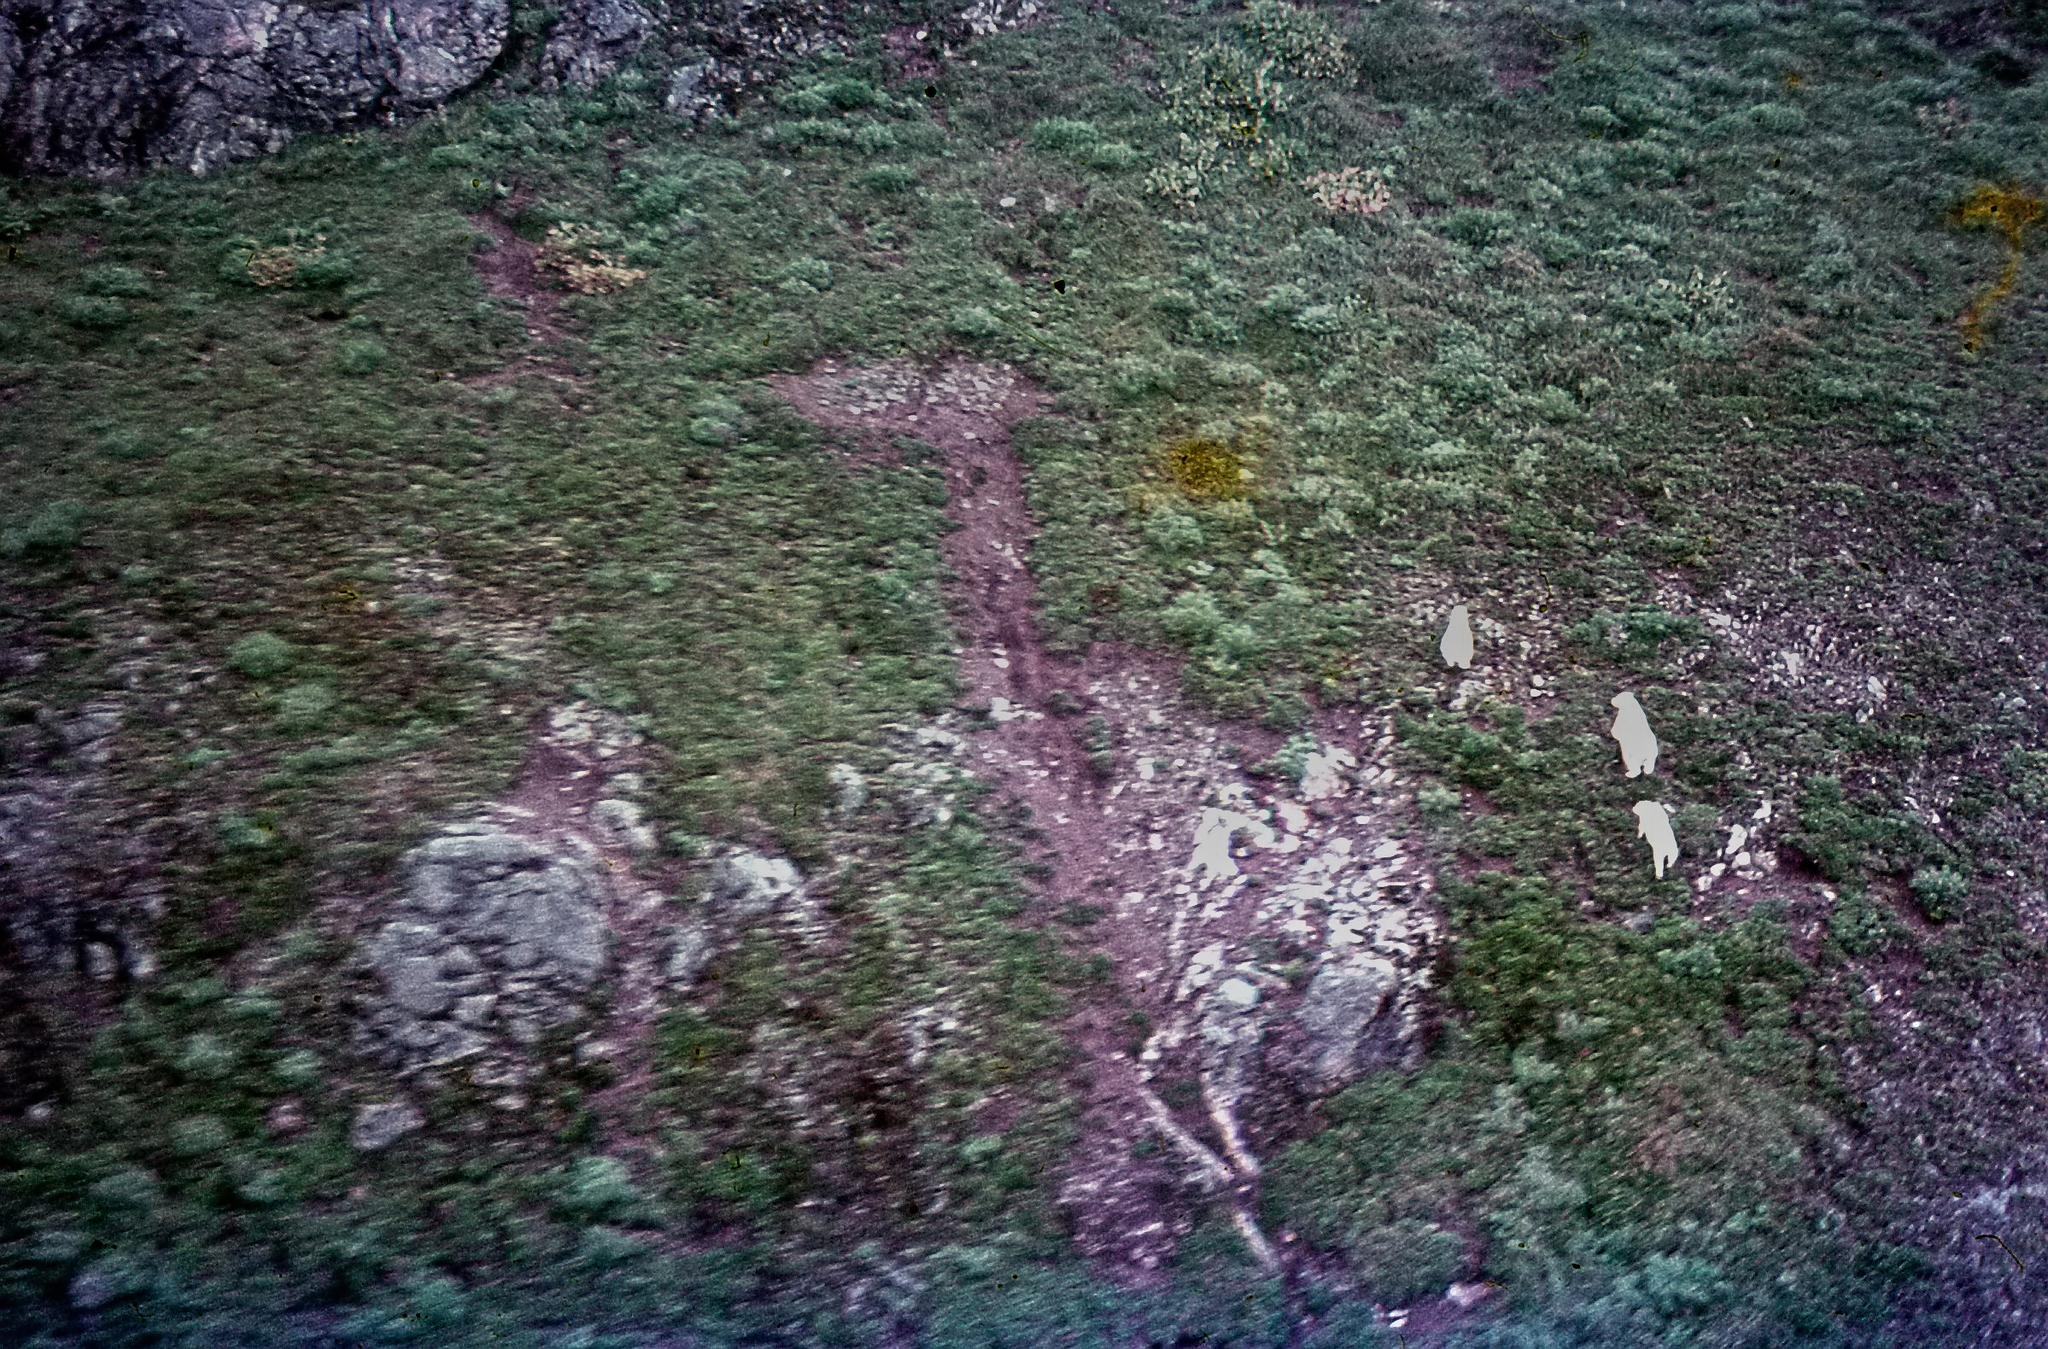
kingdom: Animalia
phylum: Chordata
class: Mammalia
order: Artiodactyla
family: Bovidae
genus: Oreamnos
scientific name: Oreamnos americanus
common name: Mountain goat
